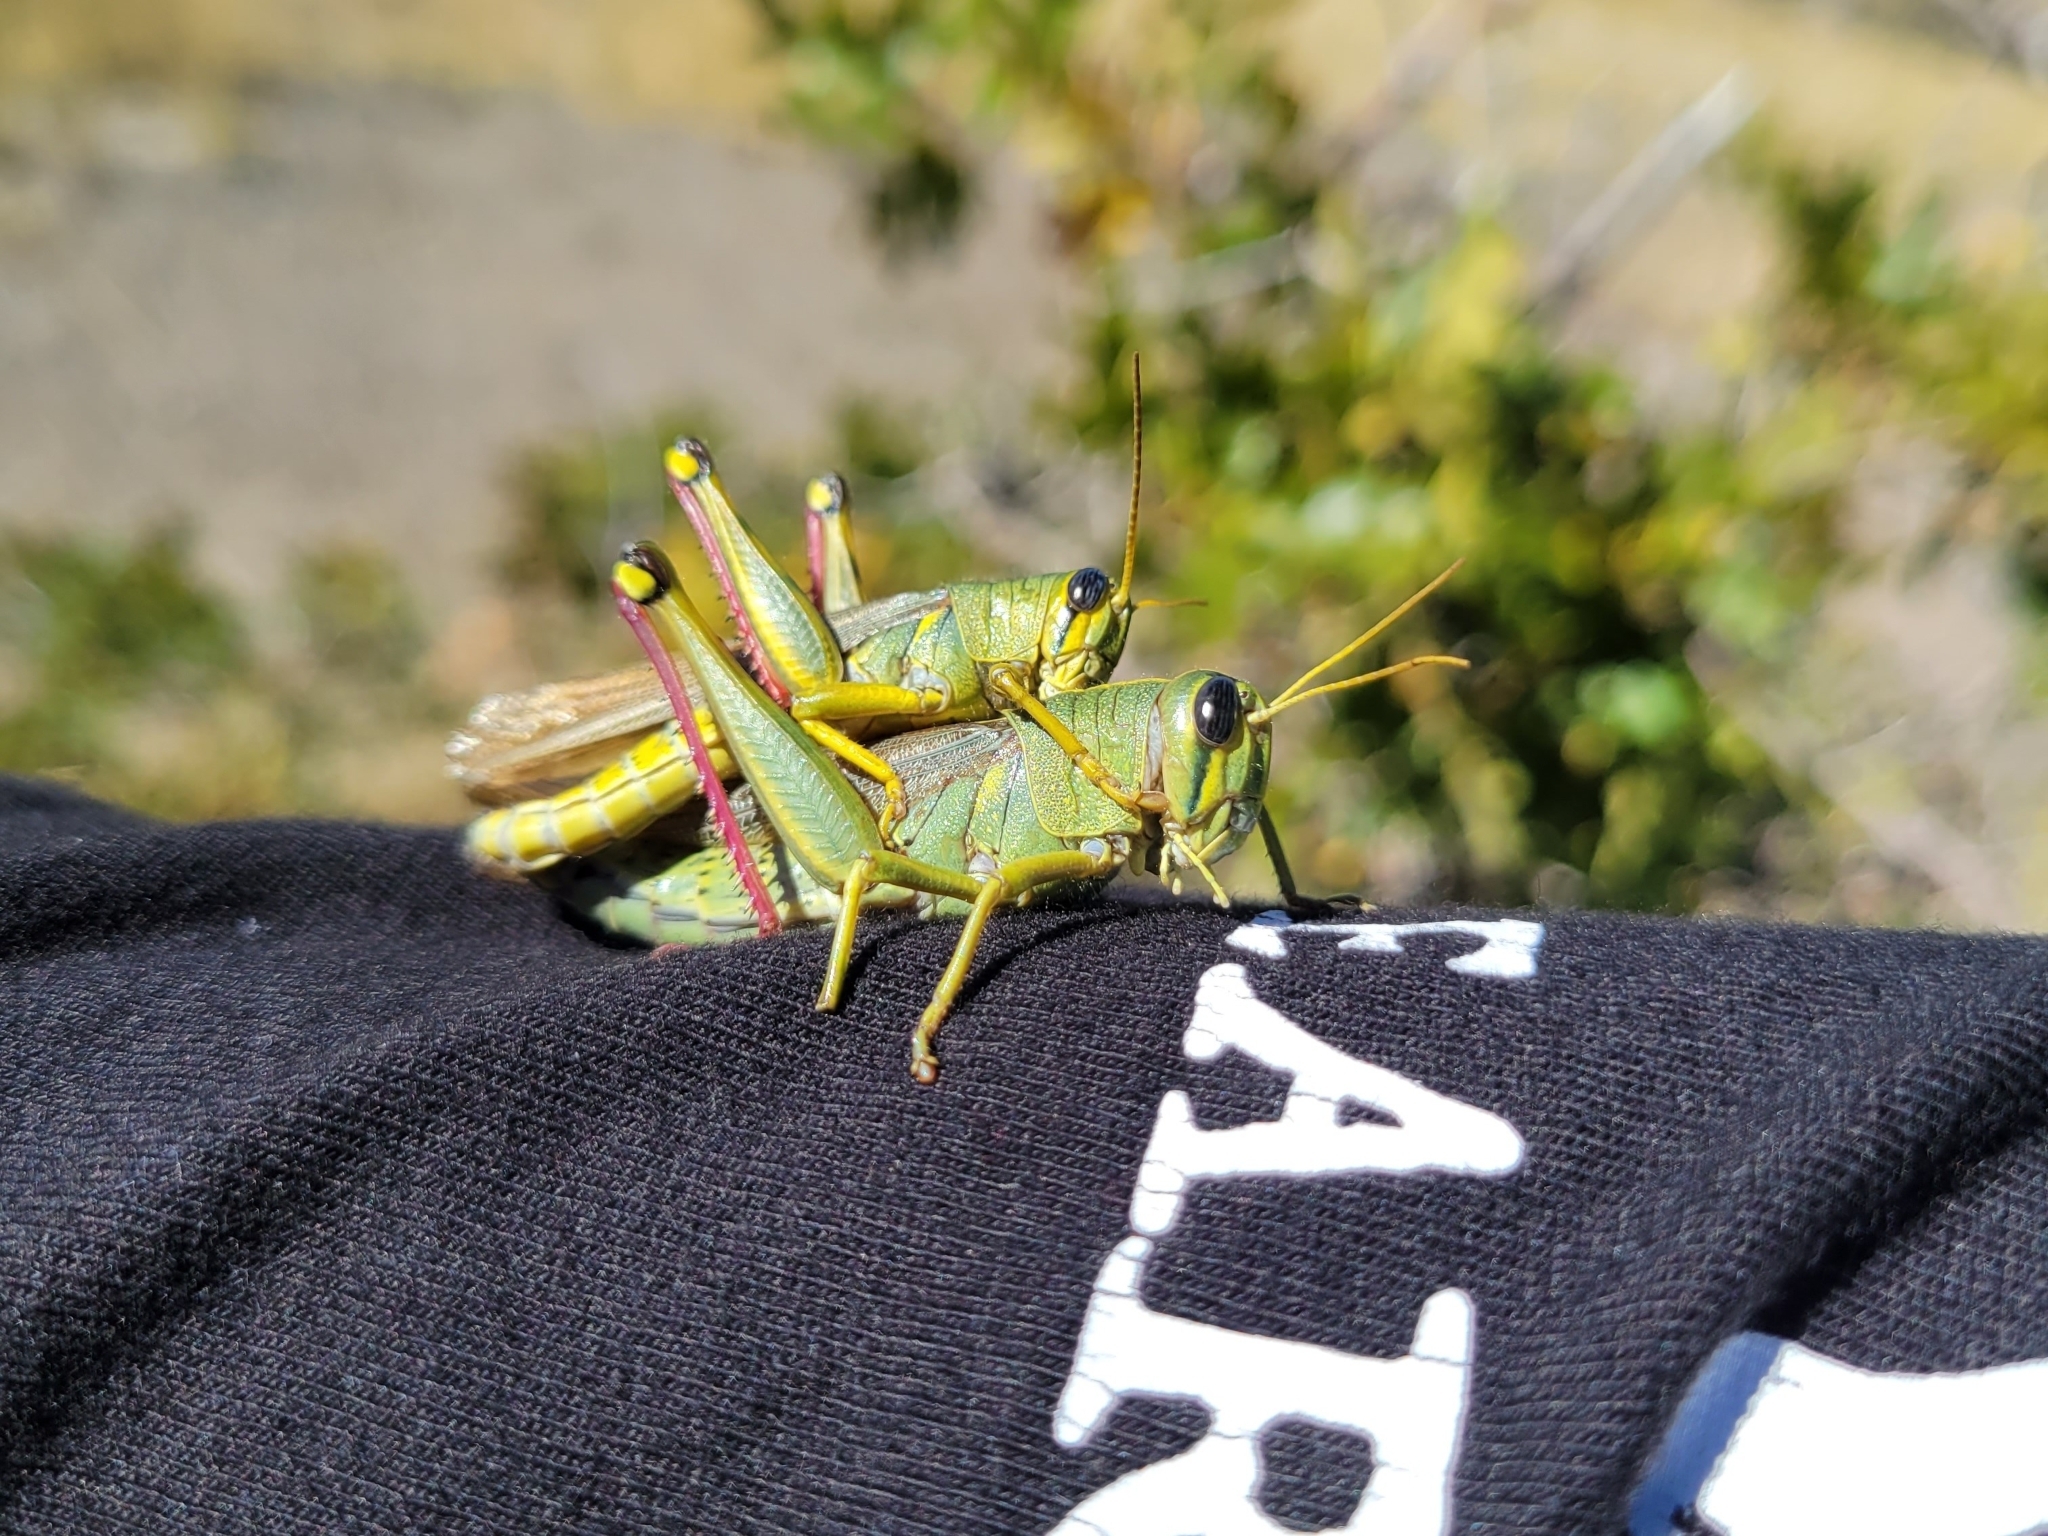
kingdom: Animalia
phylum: Arthropoda
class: Insecta
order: Orthoptera
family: Acrididae
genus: Schistocerca
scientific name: Schistocerca lineata
